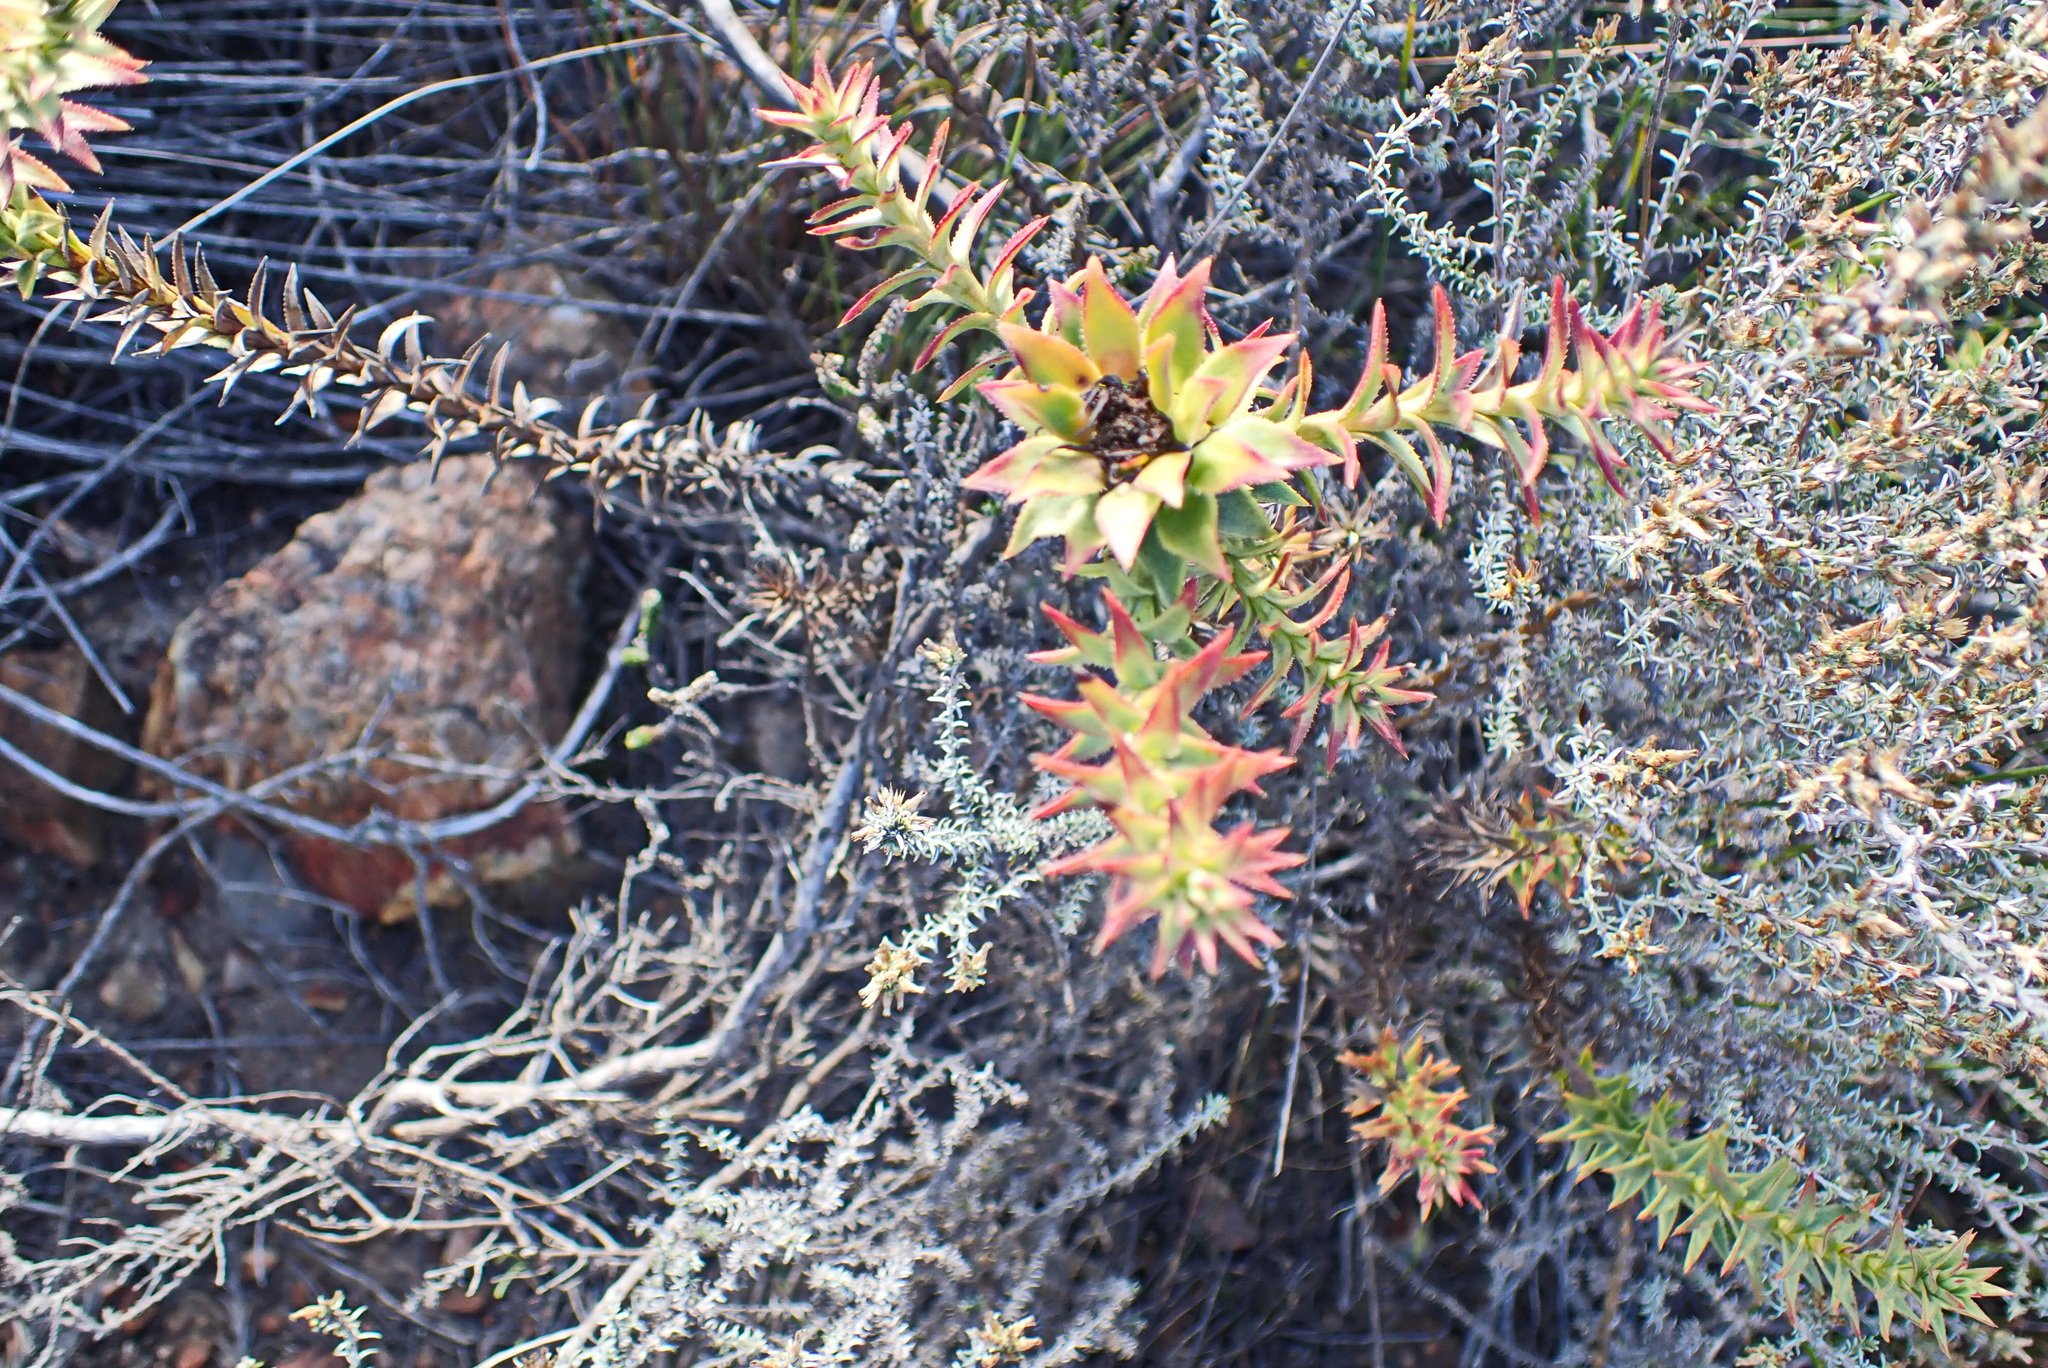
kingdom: Plantae
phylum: Tracheophyta
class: Magnoliopsida
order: Asterales
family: Asteraceae
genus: Oedera
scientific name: Oedera imbricata
